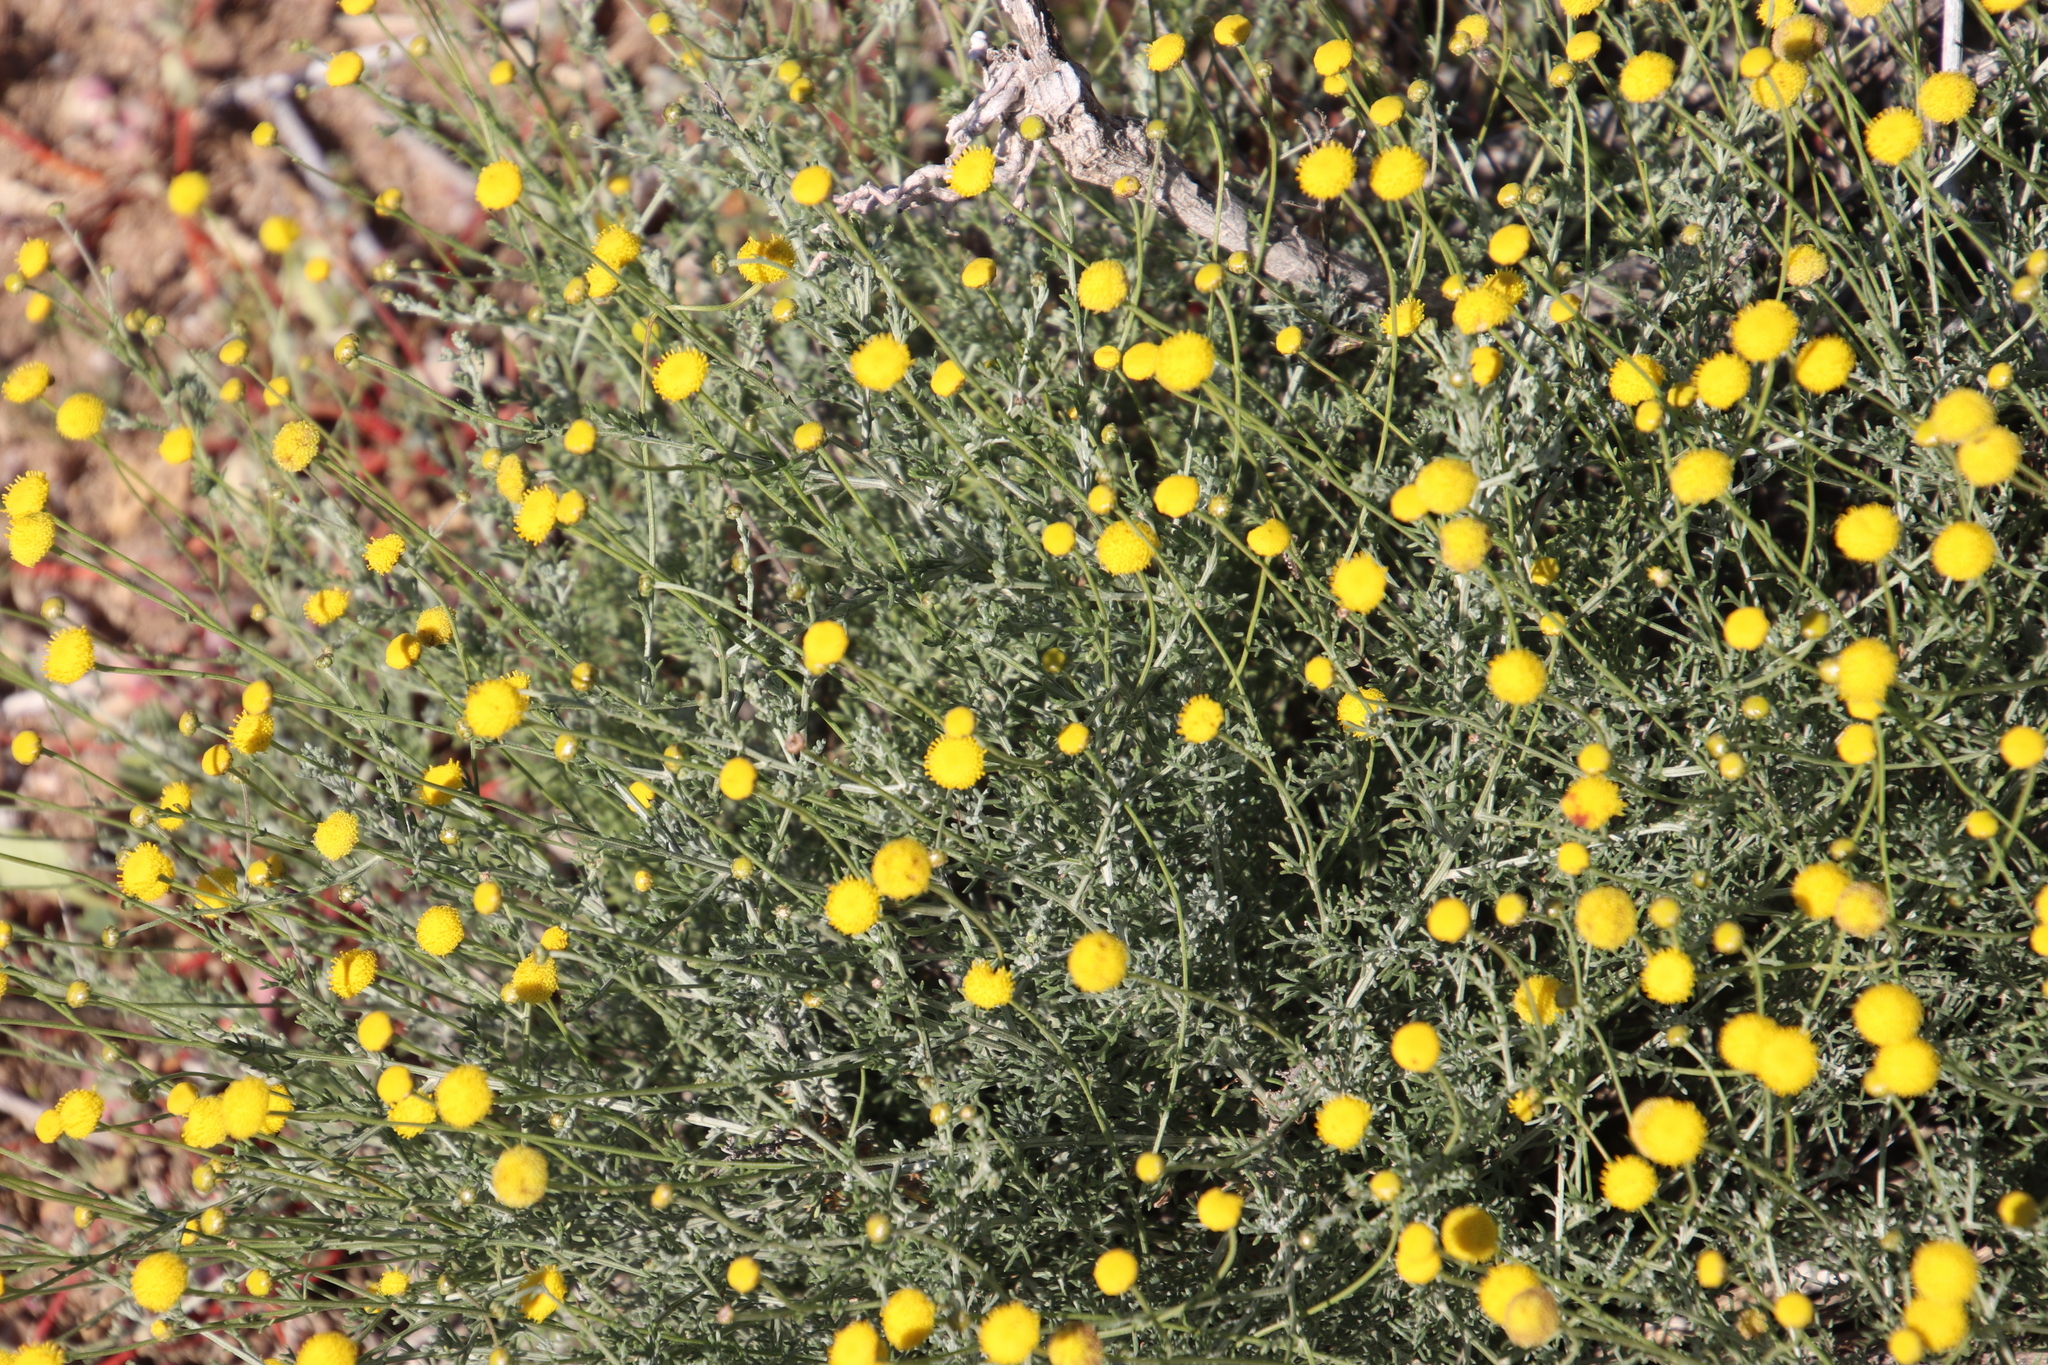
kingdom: Plantae
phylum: Tracheophyta
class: Magnoliopsida
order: Asterales
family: Asteraceae
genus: Pentzia
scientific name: Pentzia peduncularis
